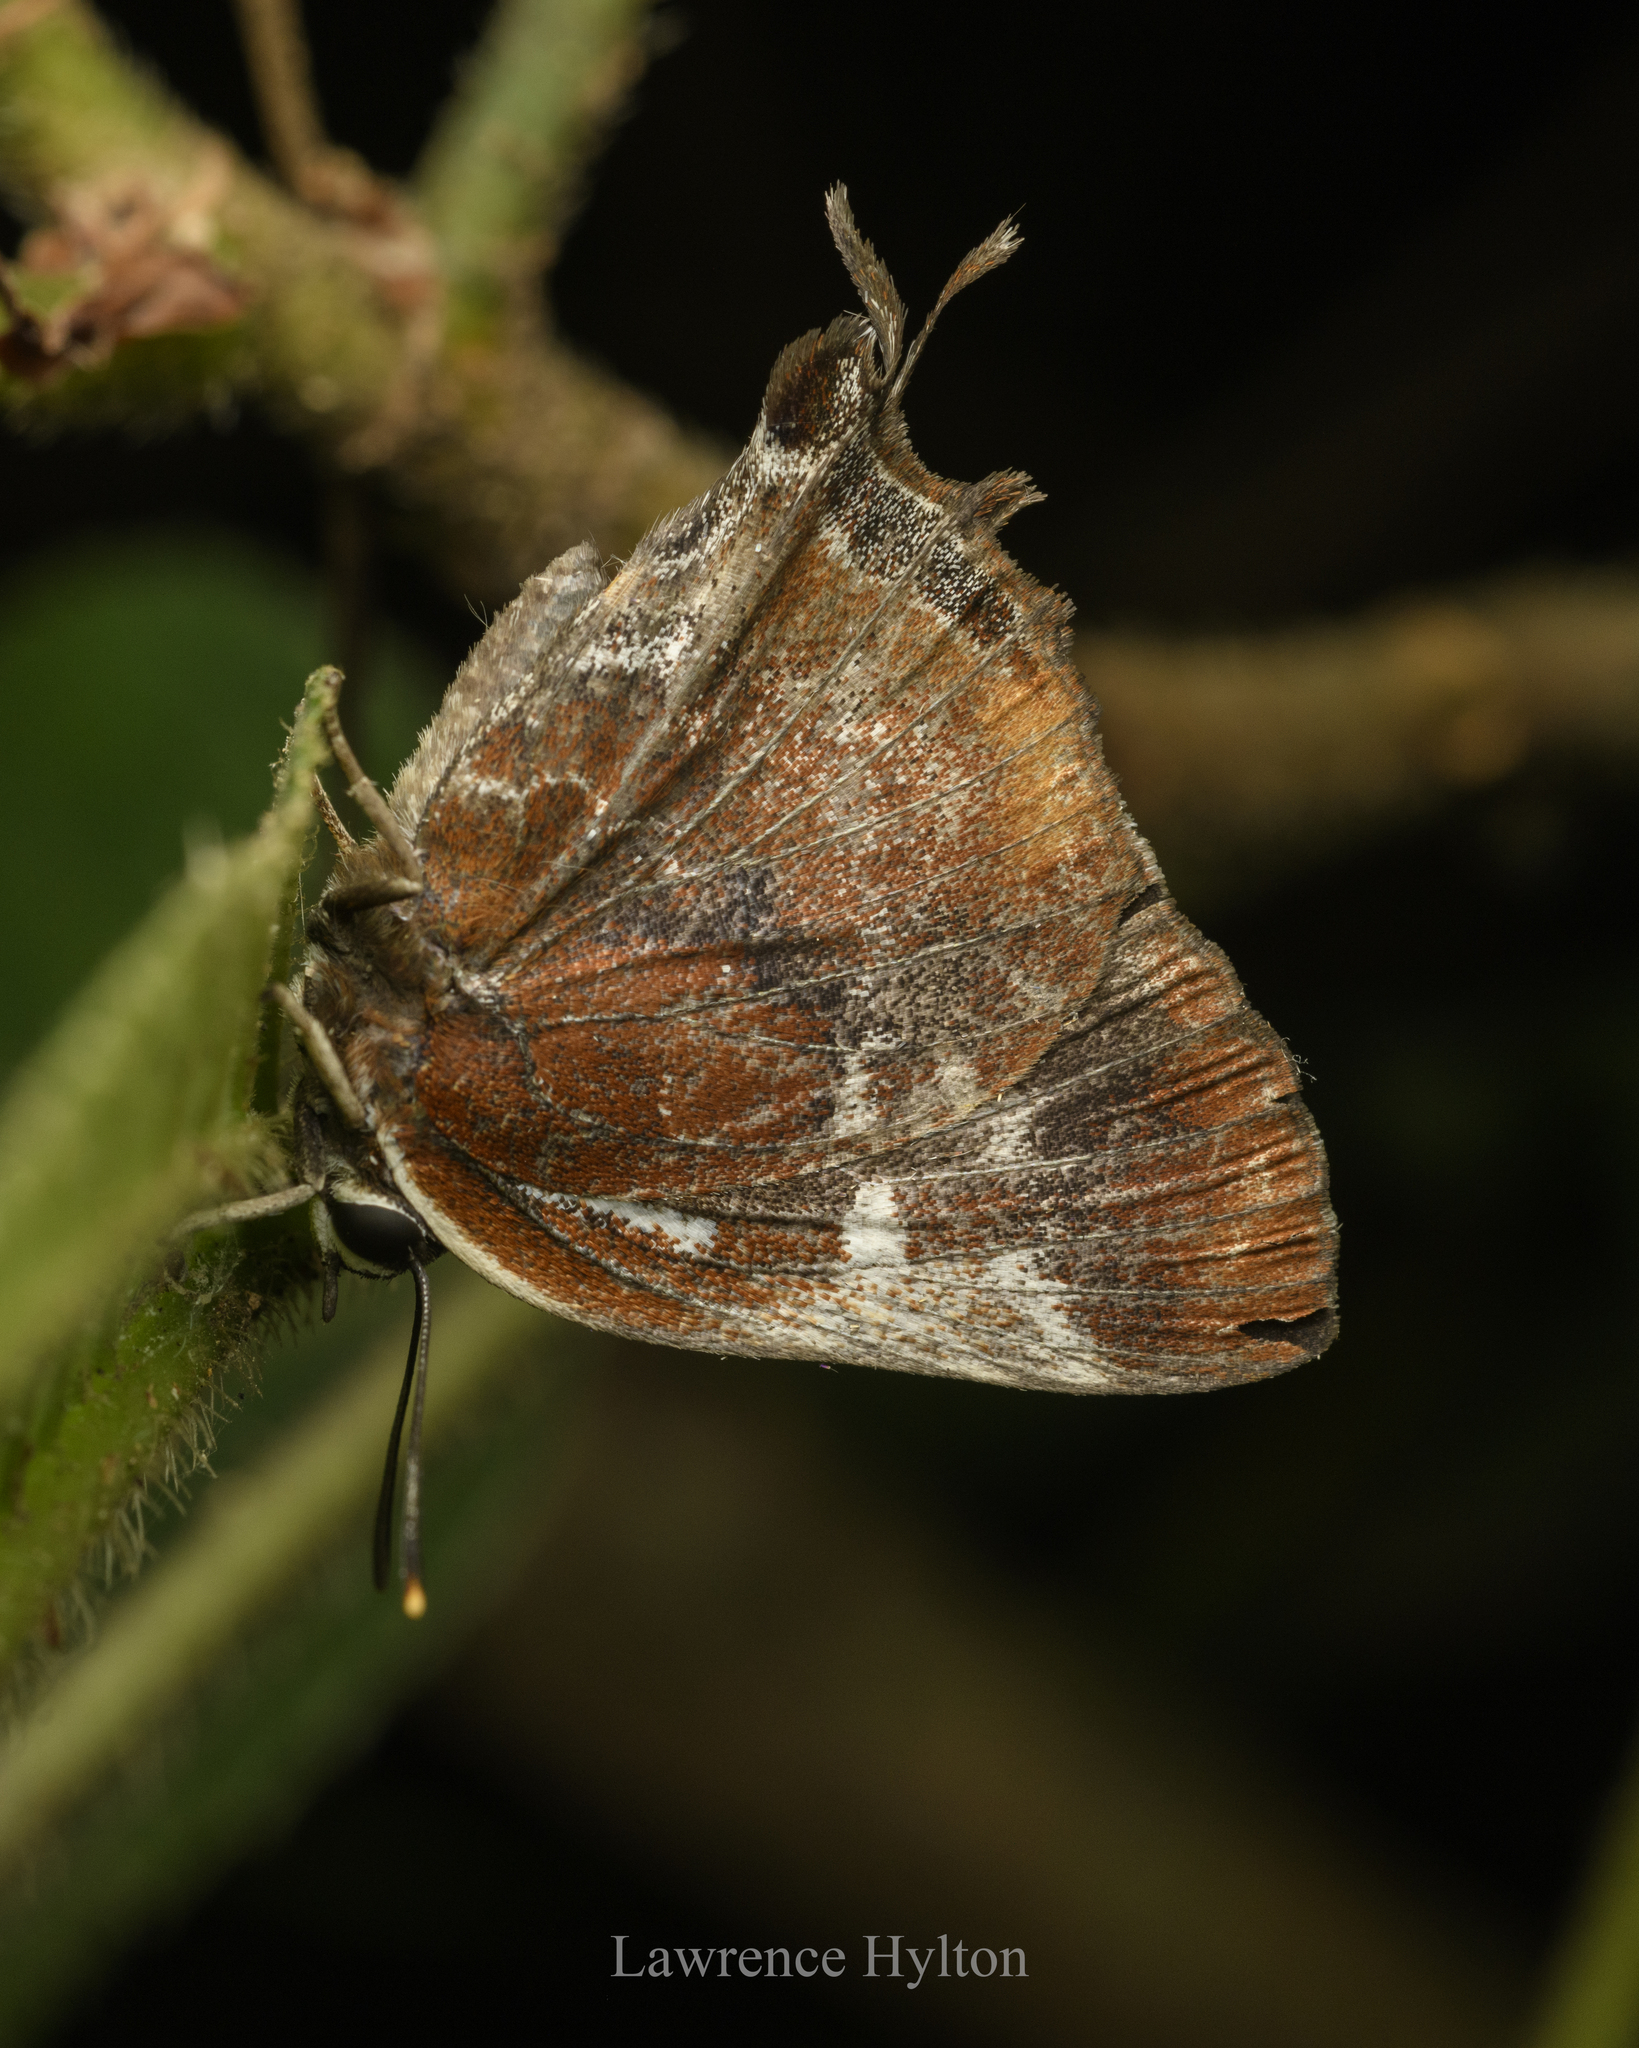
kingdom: Animalia
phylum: Arthropoda
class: Insecta
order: Lepidoptera
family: Lycaenidae
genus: Iraota
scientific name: Iraota timoleon
